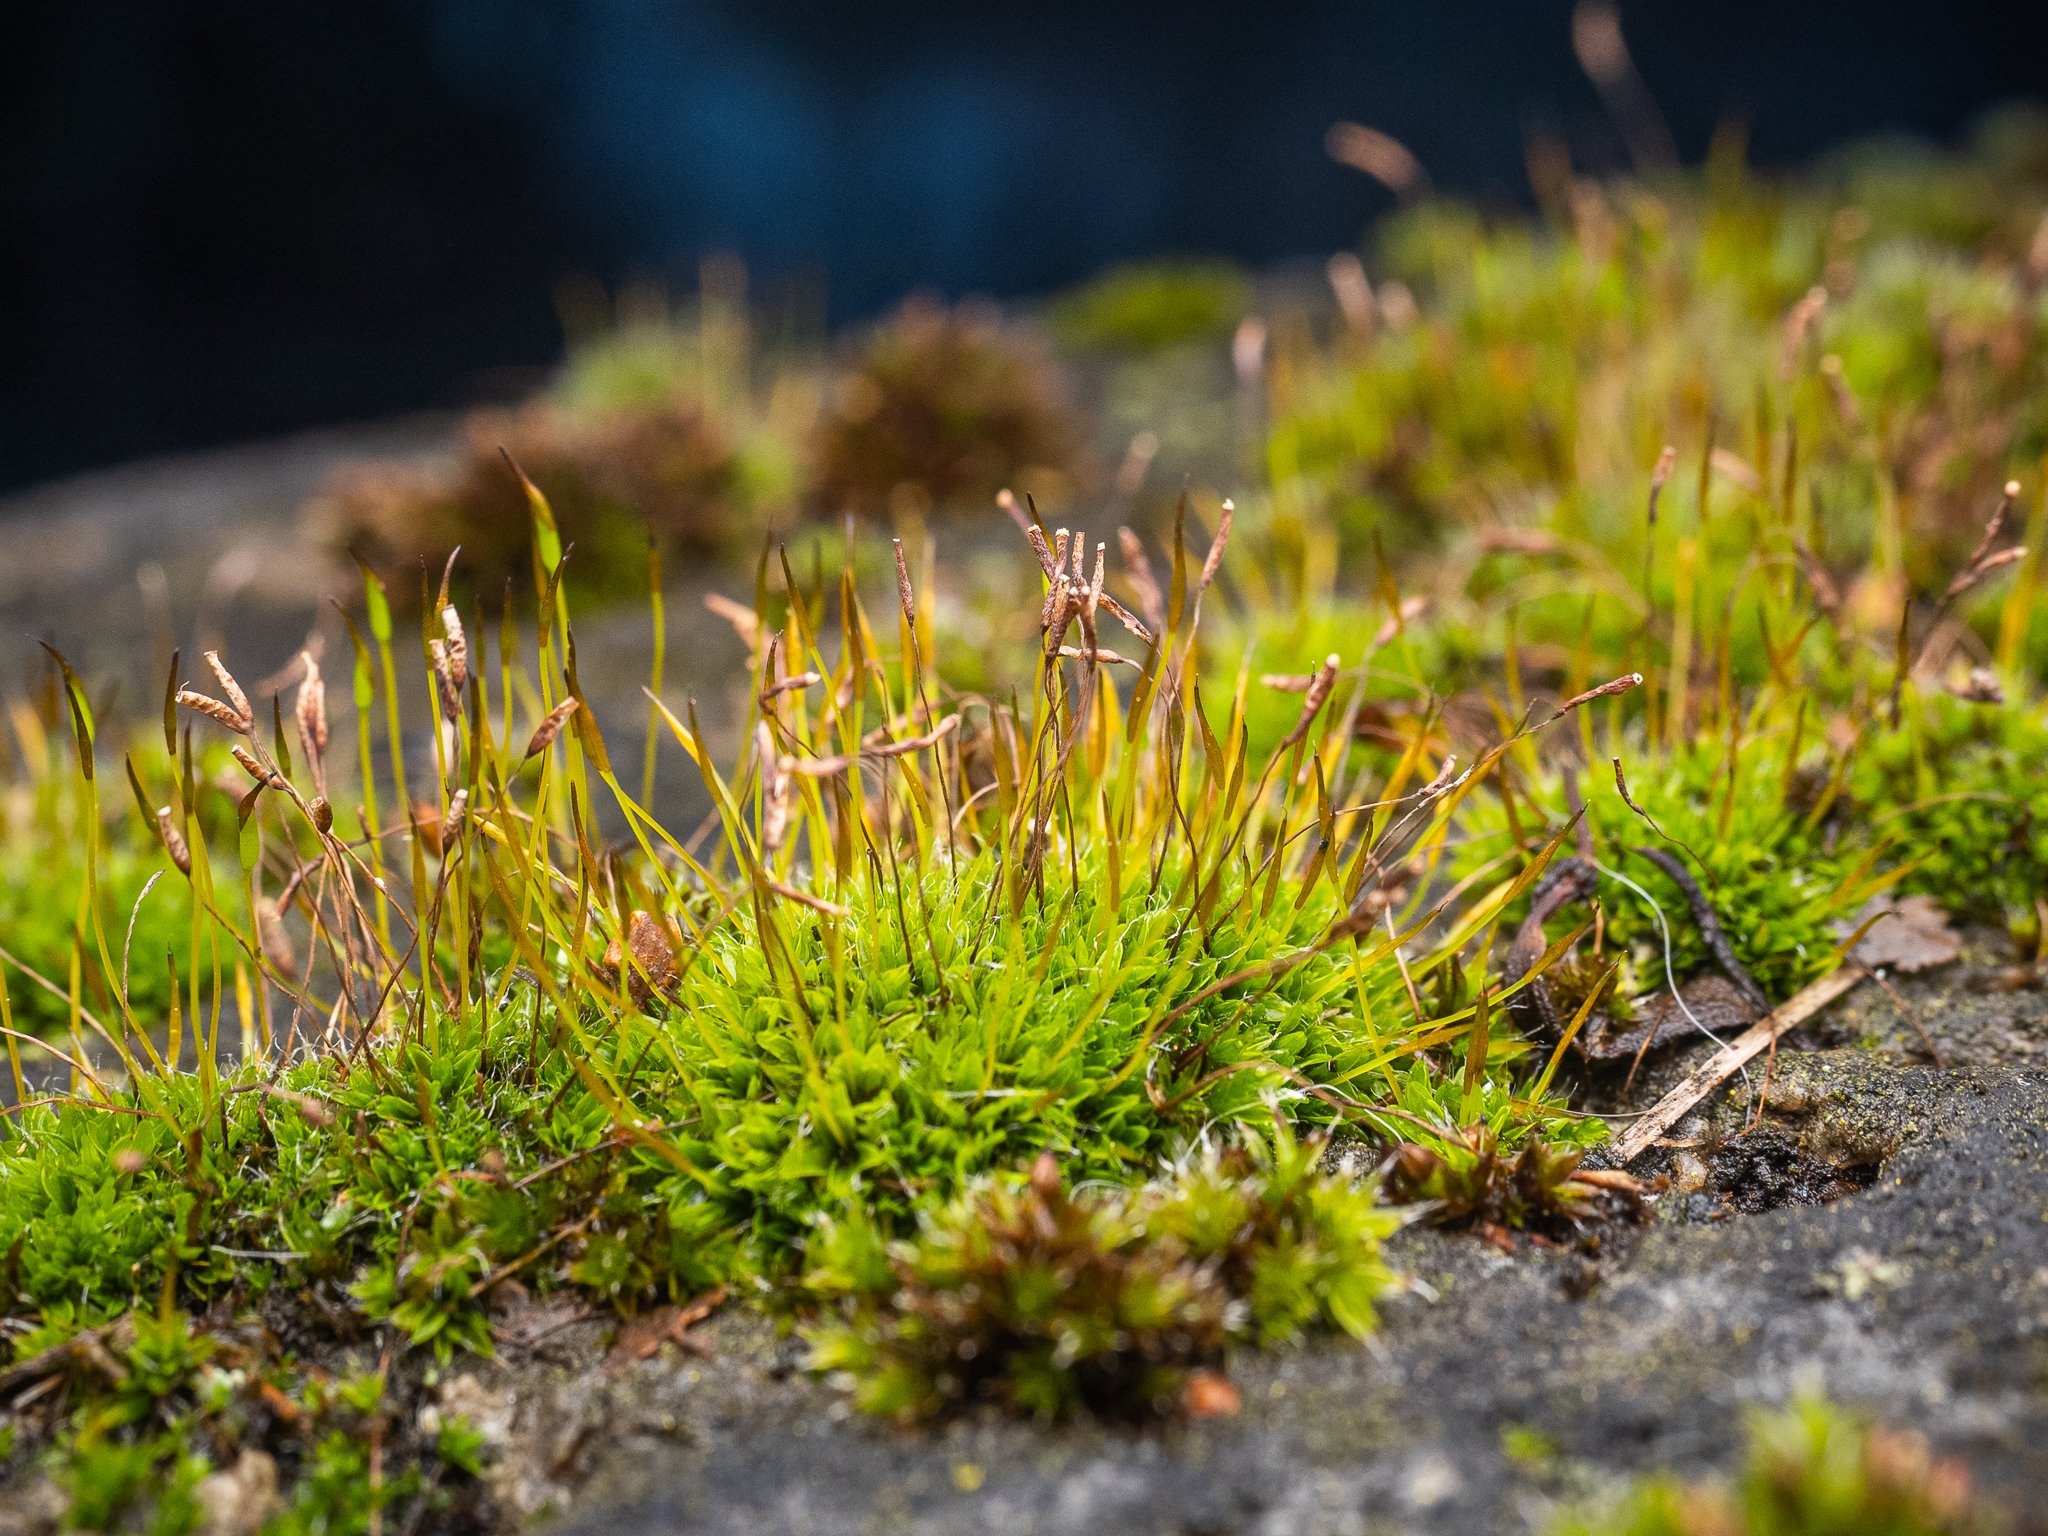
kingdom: Plantae
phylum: Bryophyta
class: Bryopsida
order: Pottiales
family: Pottiaceae
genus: Tortula
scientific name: Tortula muralis
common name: Wall screw-moss
